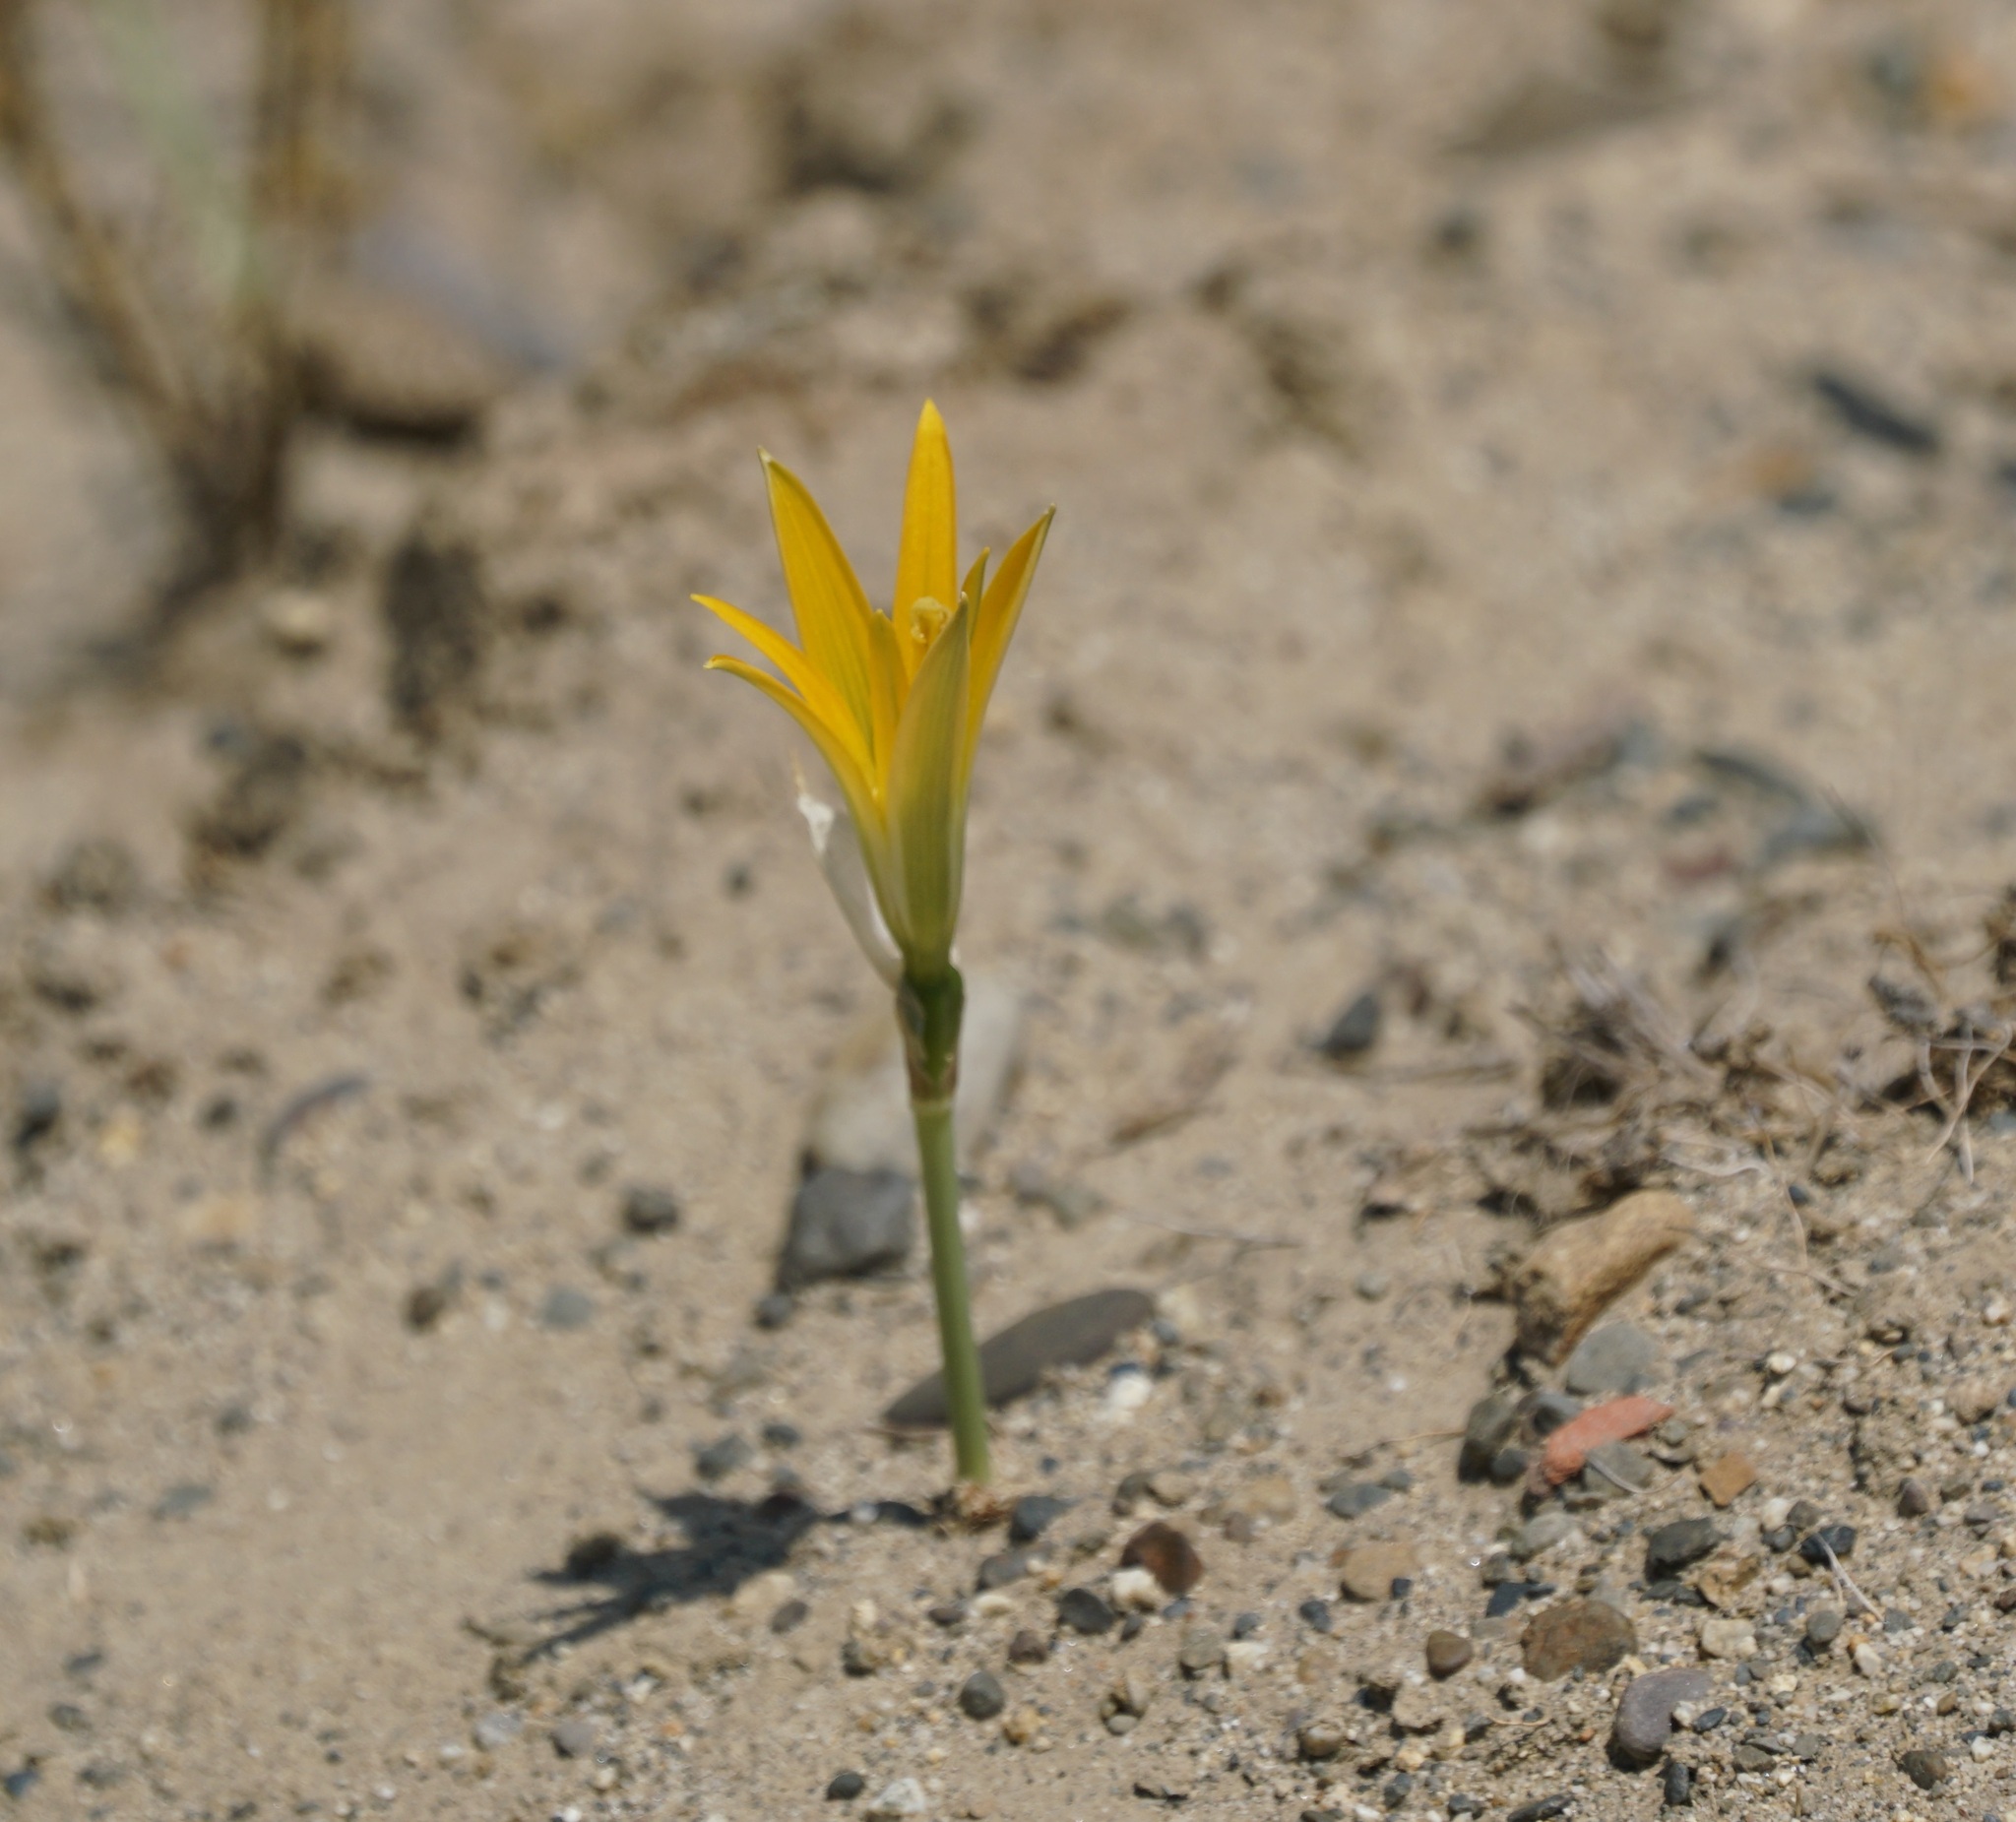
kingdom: Plantae
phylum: Tracheophyta
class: Liliopsida
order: Asparagales
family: Amaryllidaceae
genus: Pyrolirion
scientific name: Pyrolirion boliviense
